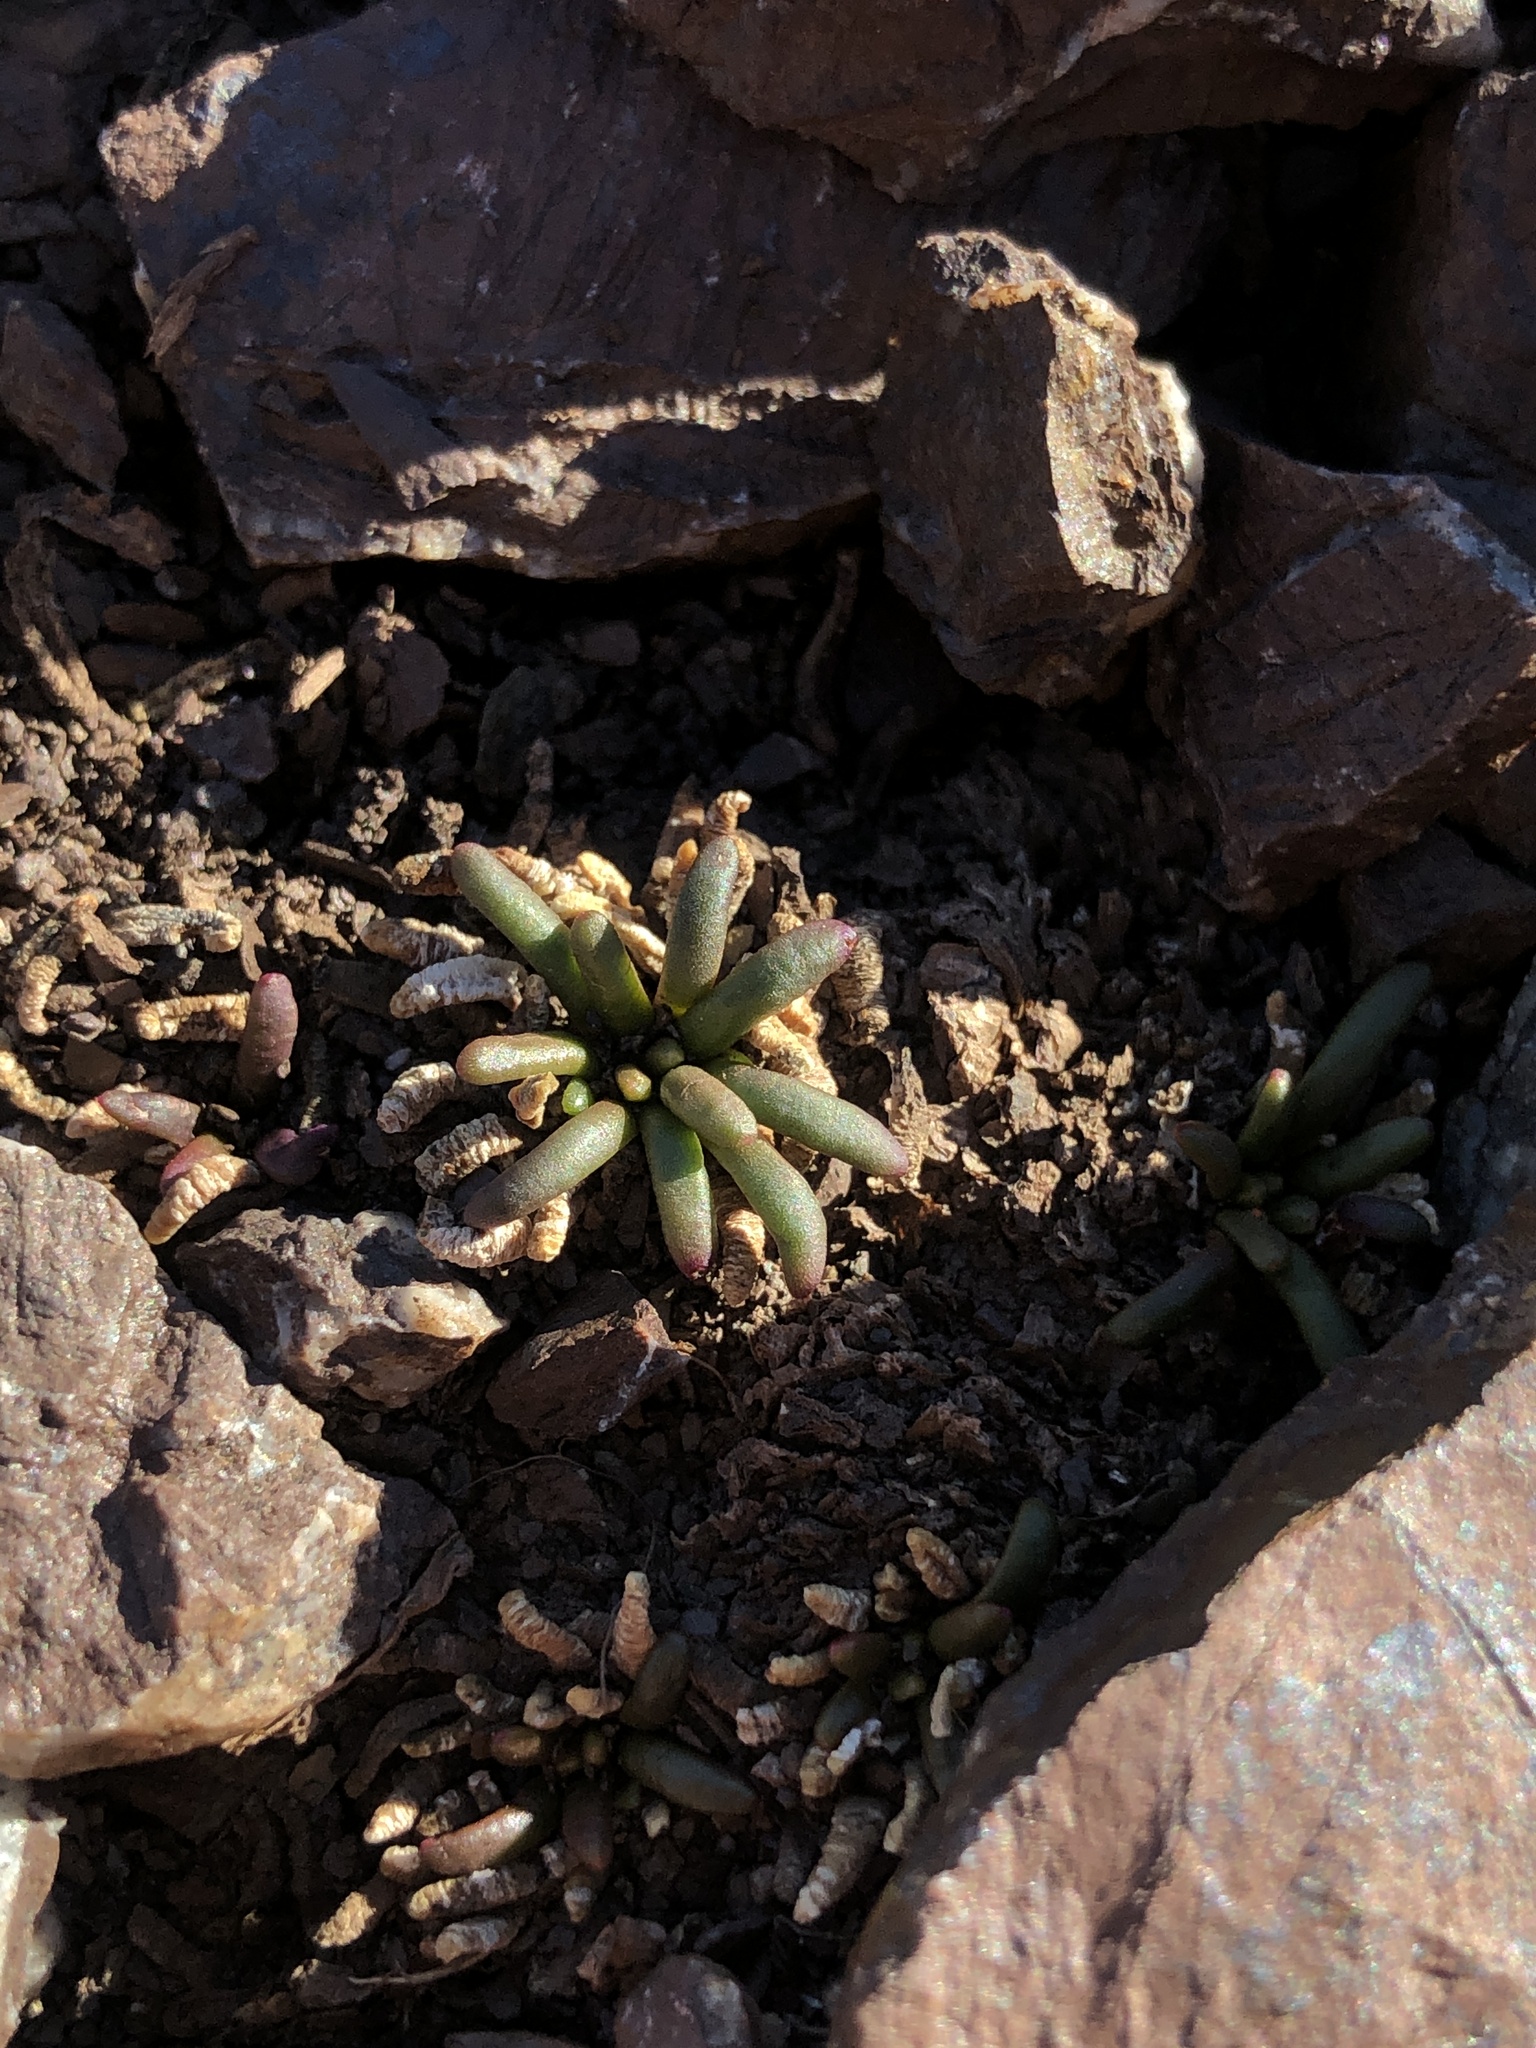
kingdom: Plantae
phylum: Tracheophyta
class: Magnoliopsida
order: Caryophyllales
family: Montiaceae
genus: Lewisia
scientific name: Lewisia rediviva
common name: Bitter-root
